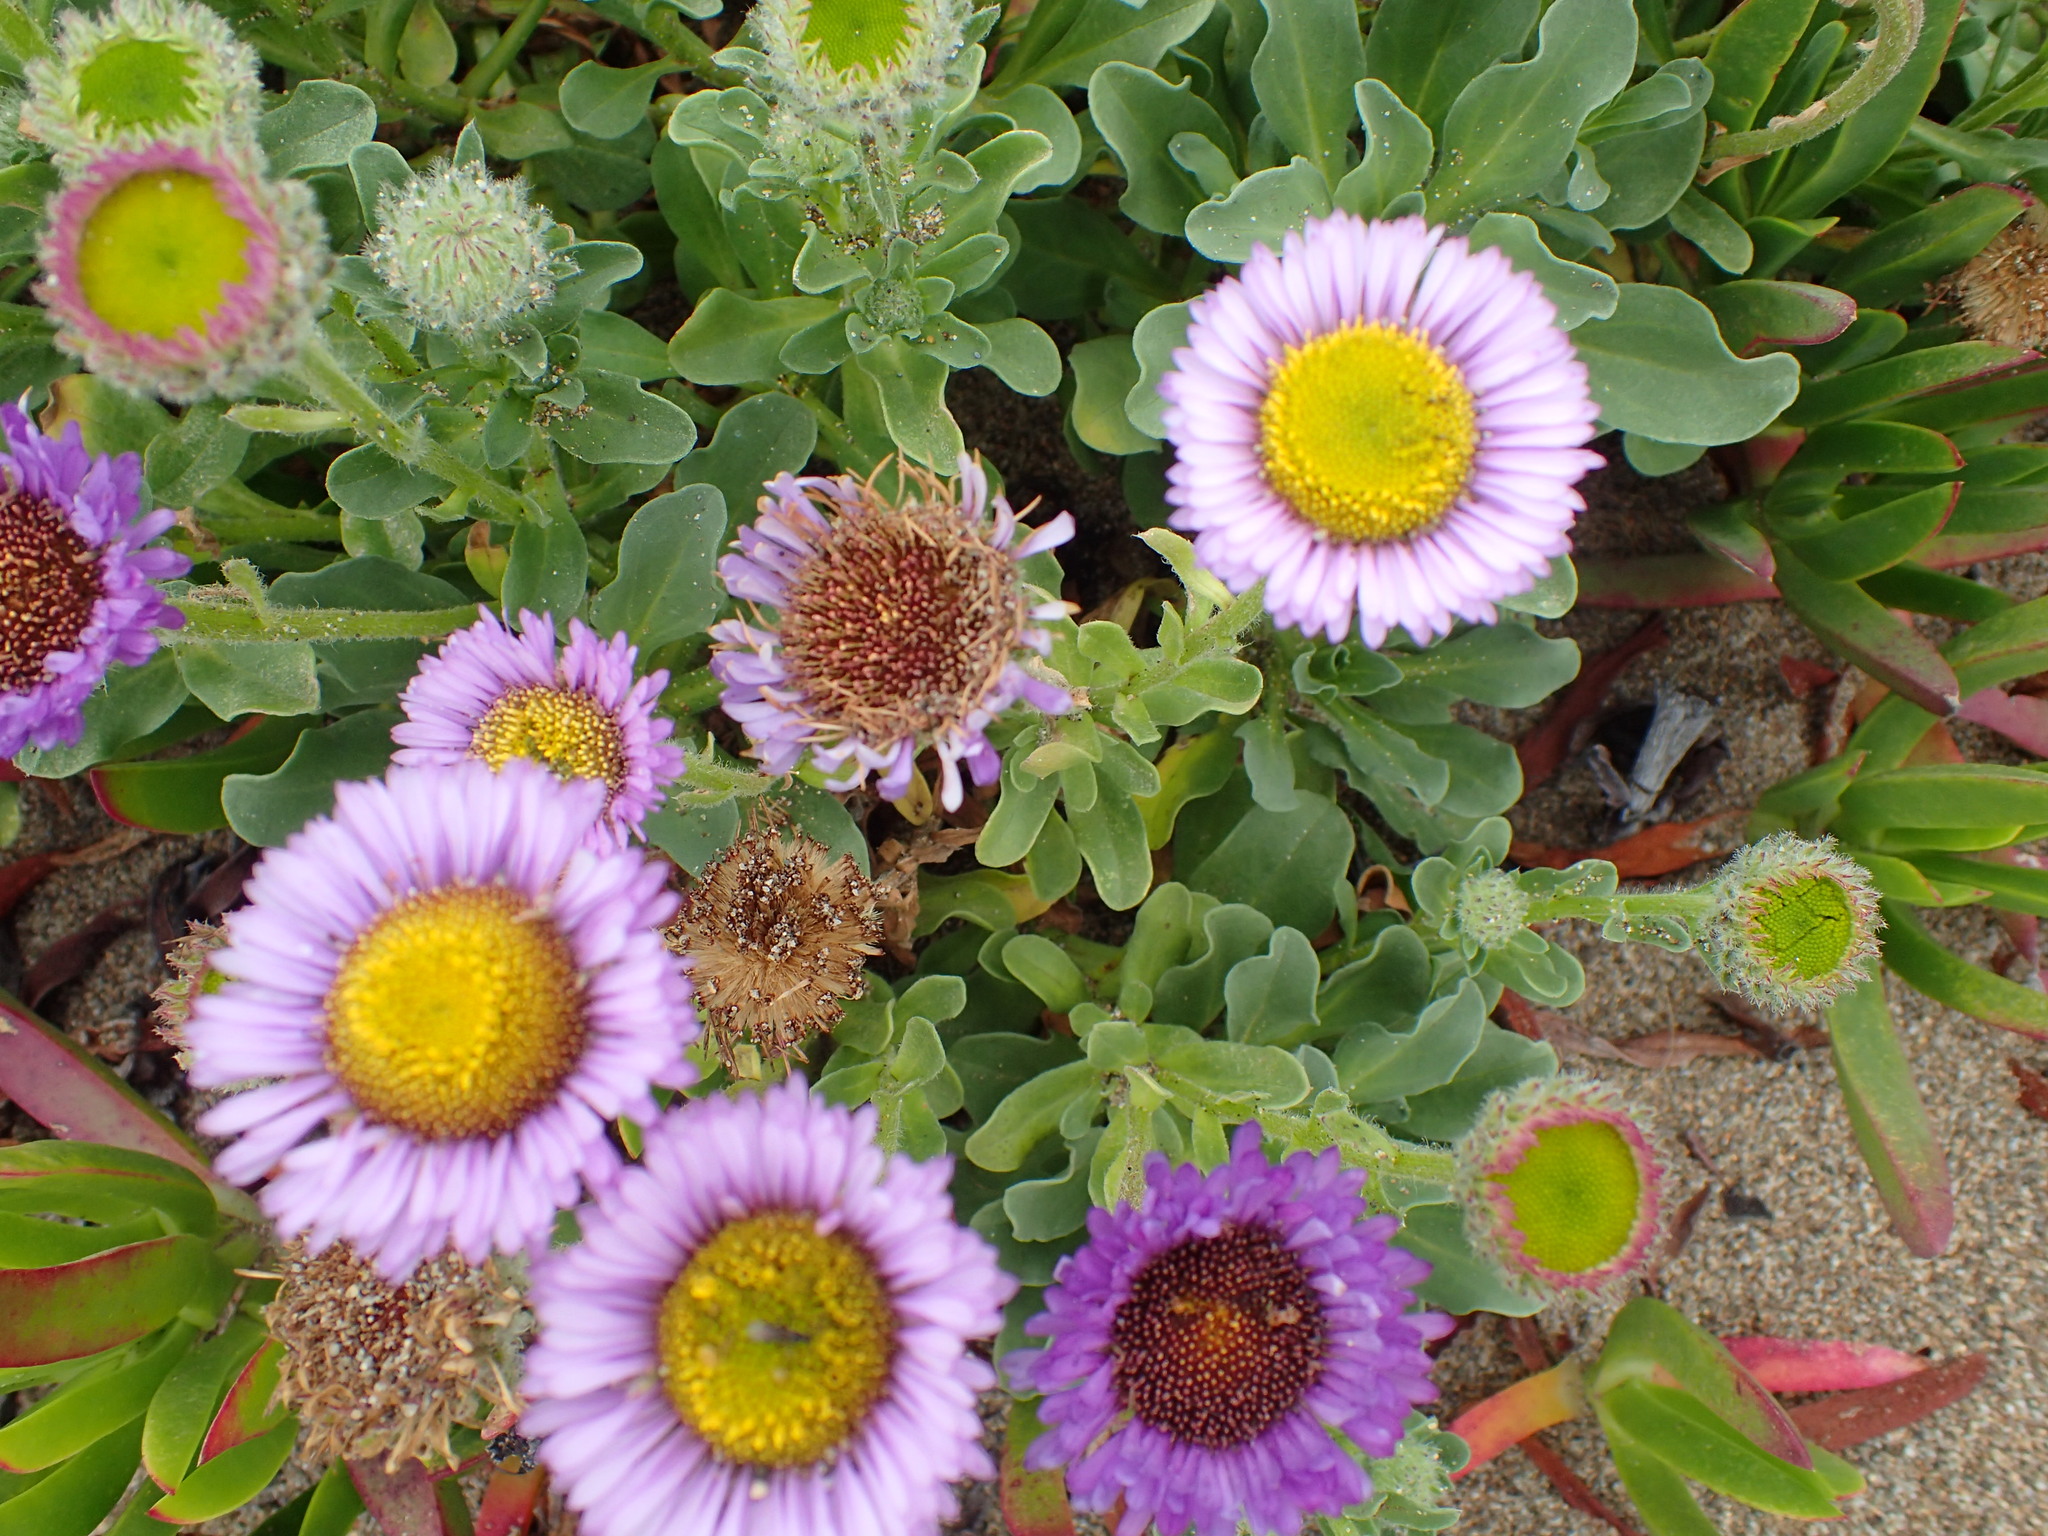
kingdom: Plantae
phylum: Tracheophyta
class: Magnoliopsida
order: Asterales
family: Asteraceae
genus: Erigeron
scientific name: Erigeron glaucus
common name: Seaside daisy
